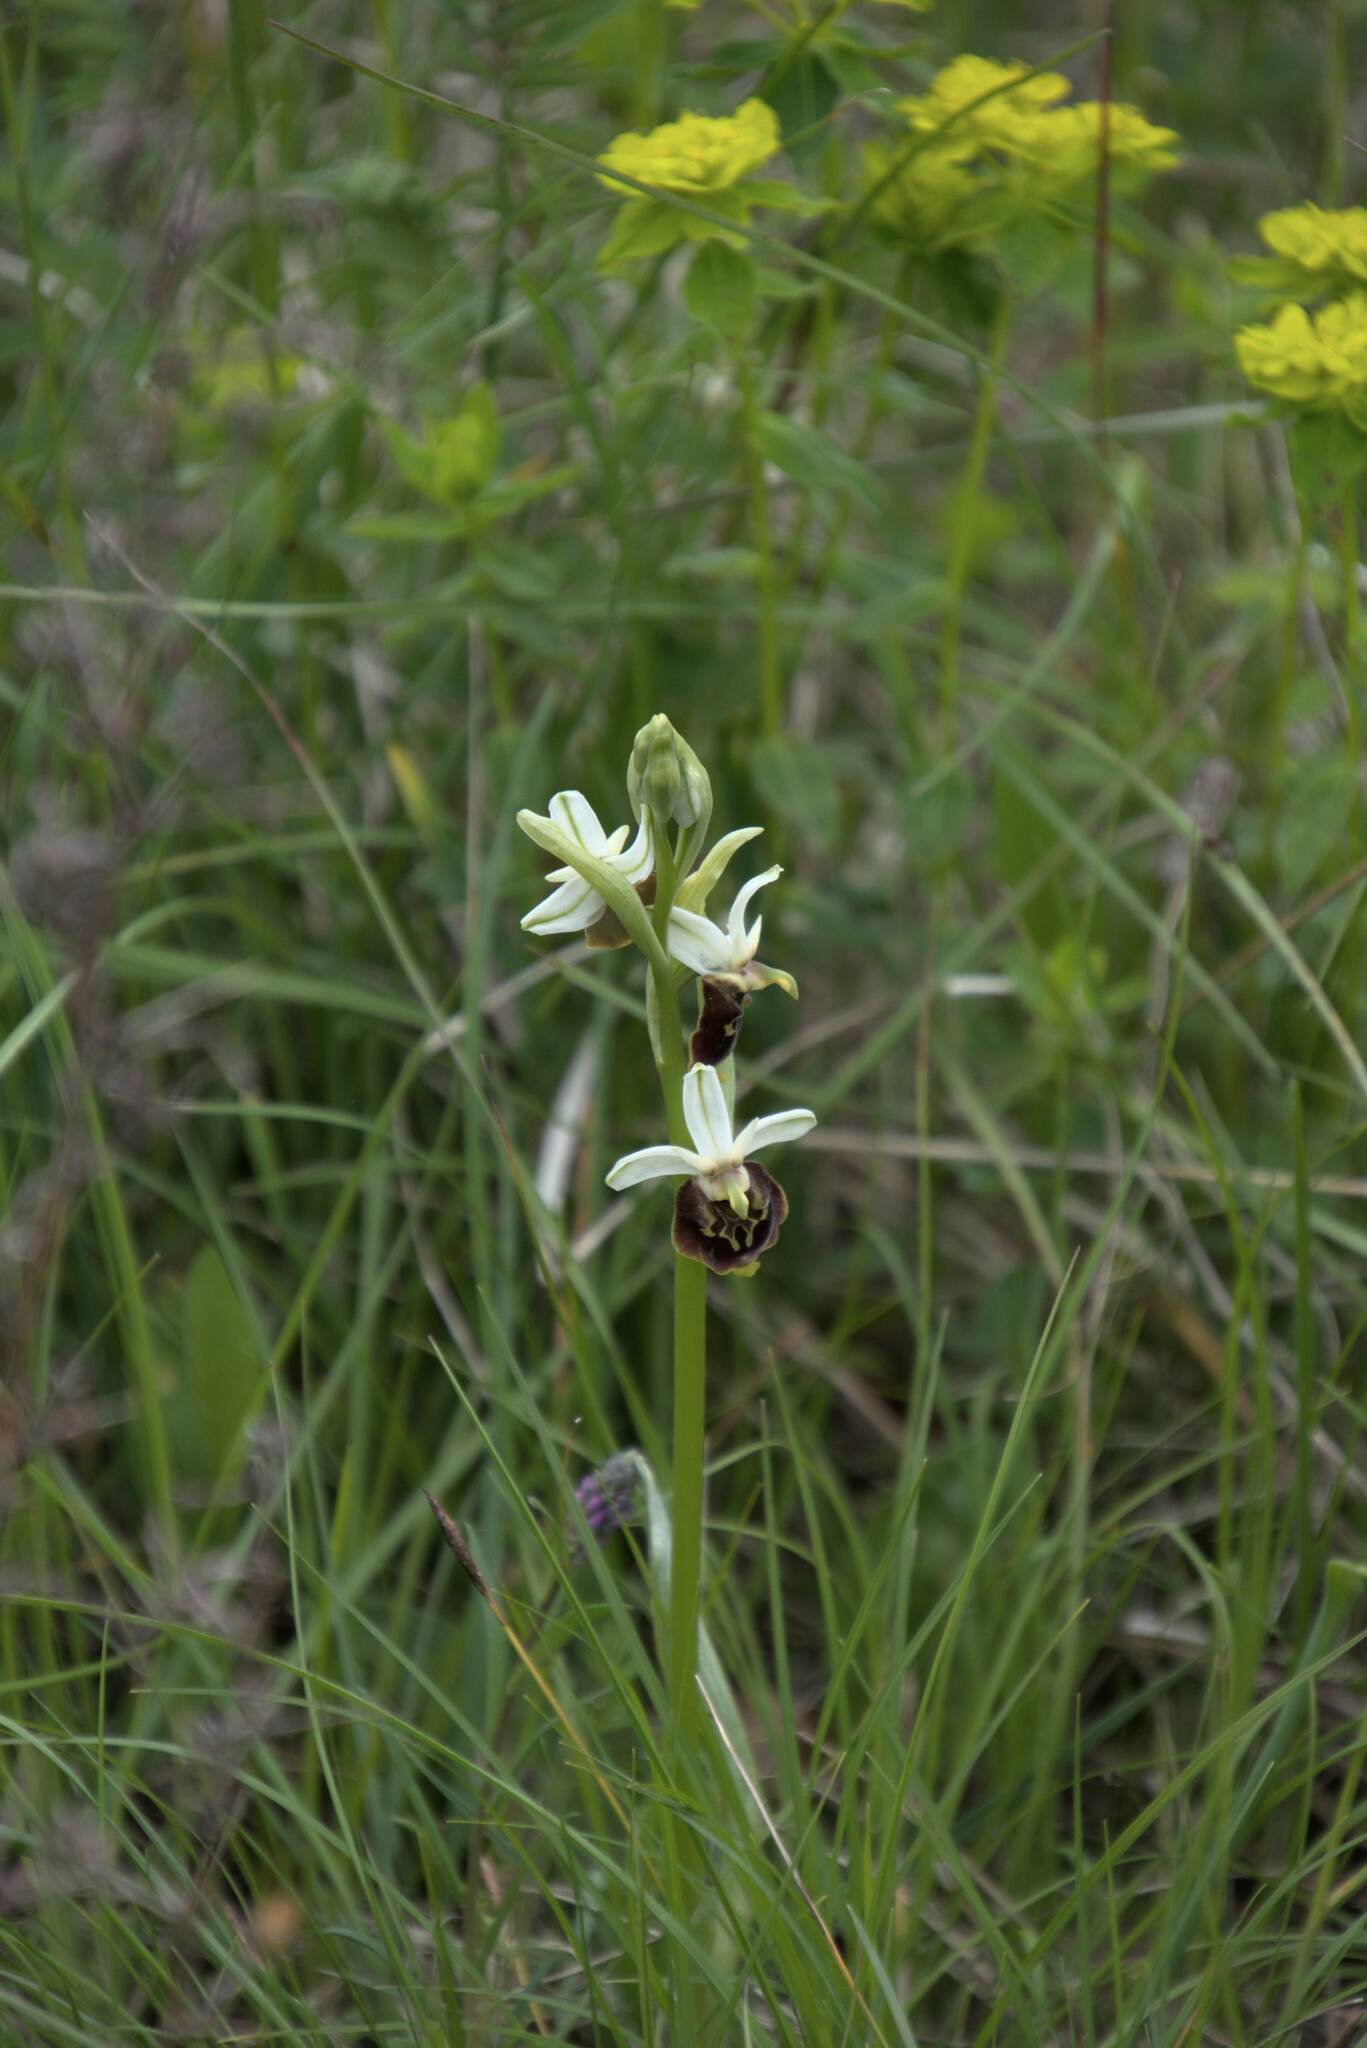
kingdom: Plantae
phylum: Tracheophyta
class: Liliopsida
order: Asparagales
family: Orchidaceae
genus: Ophrys
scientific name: Ophrys holosericea
